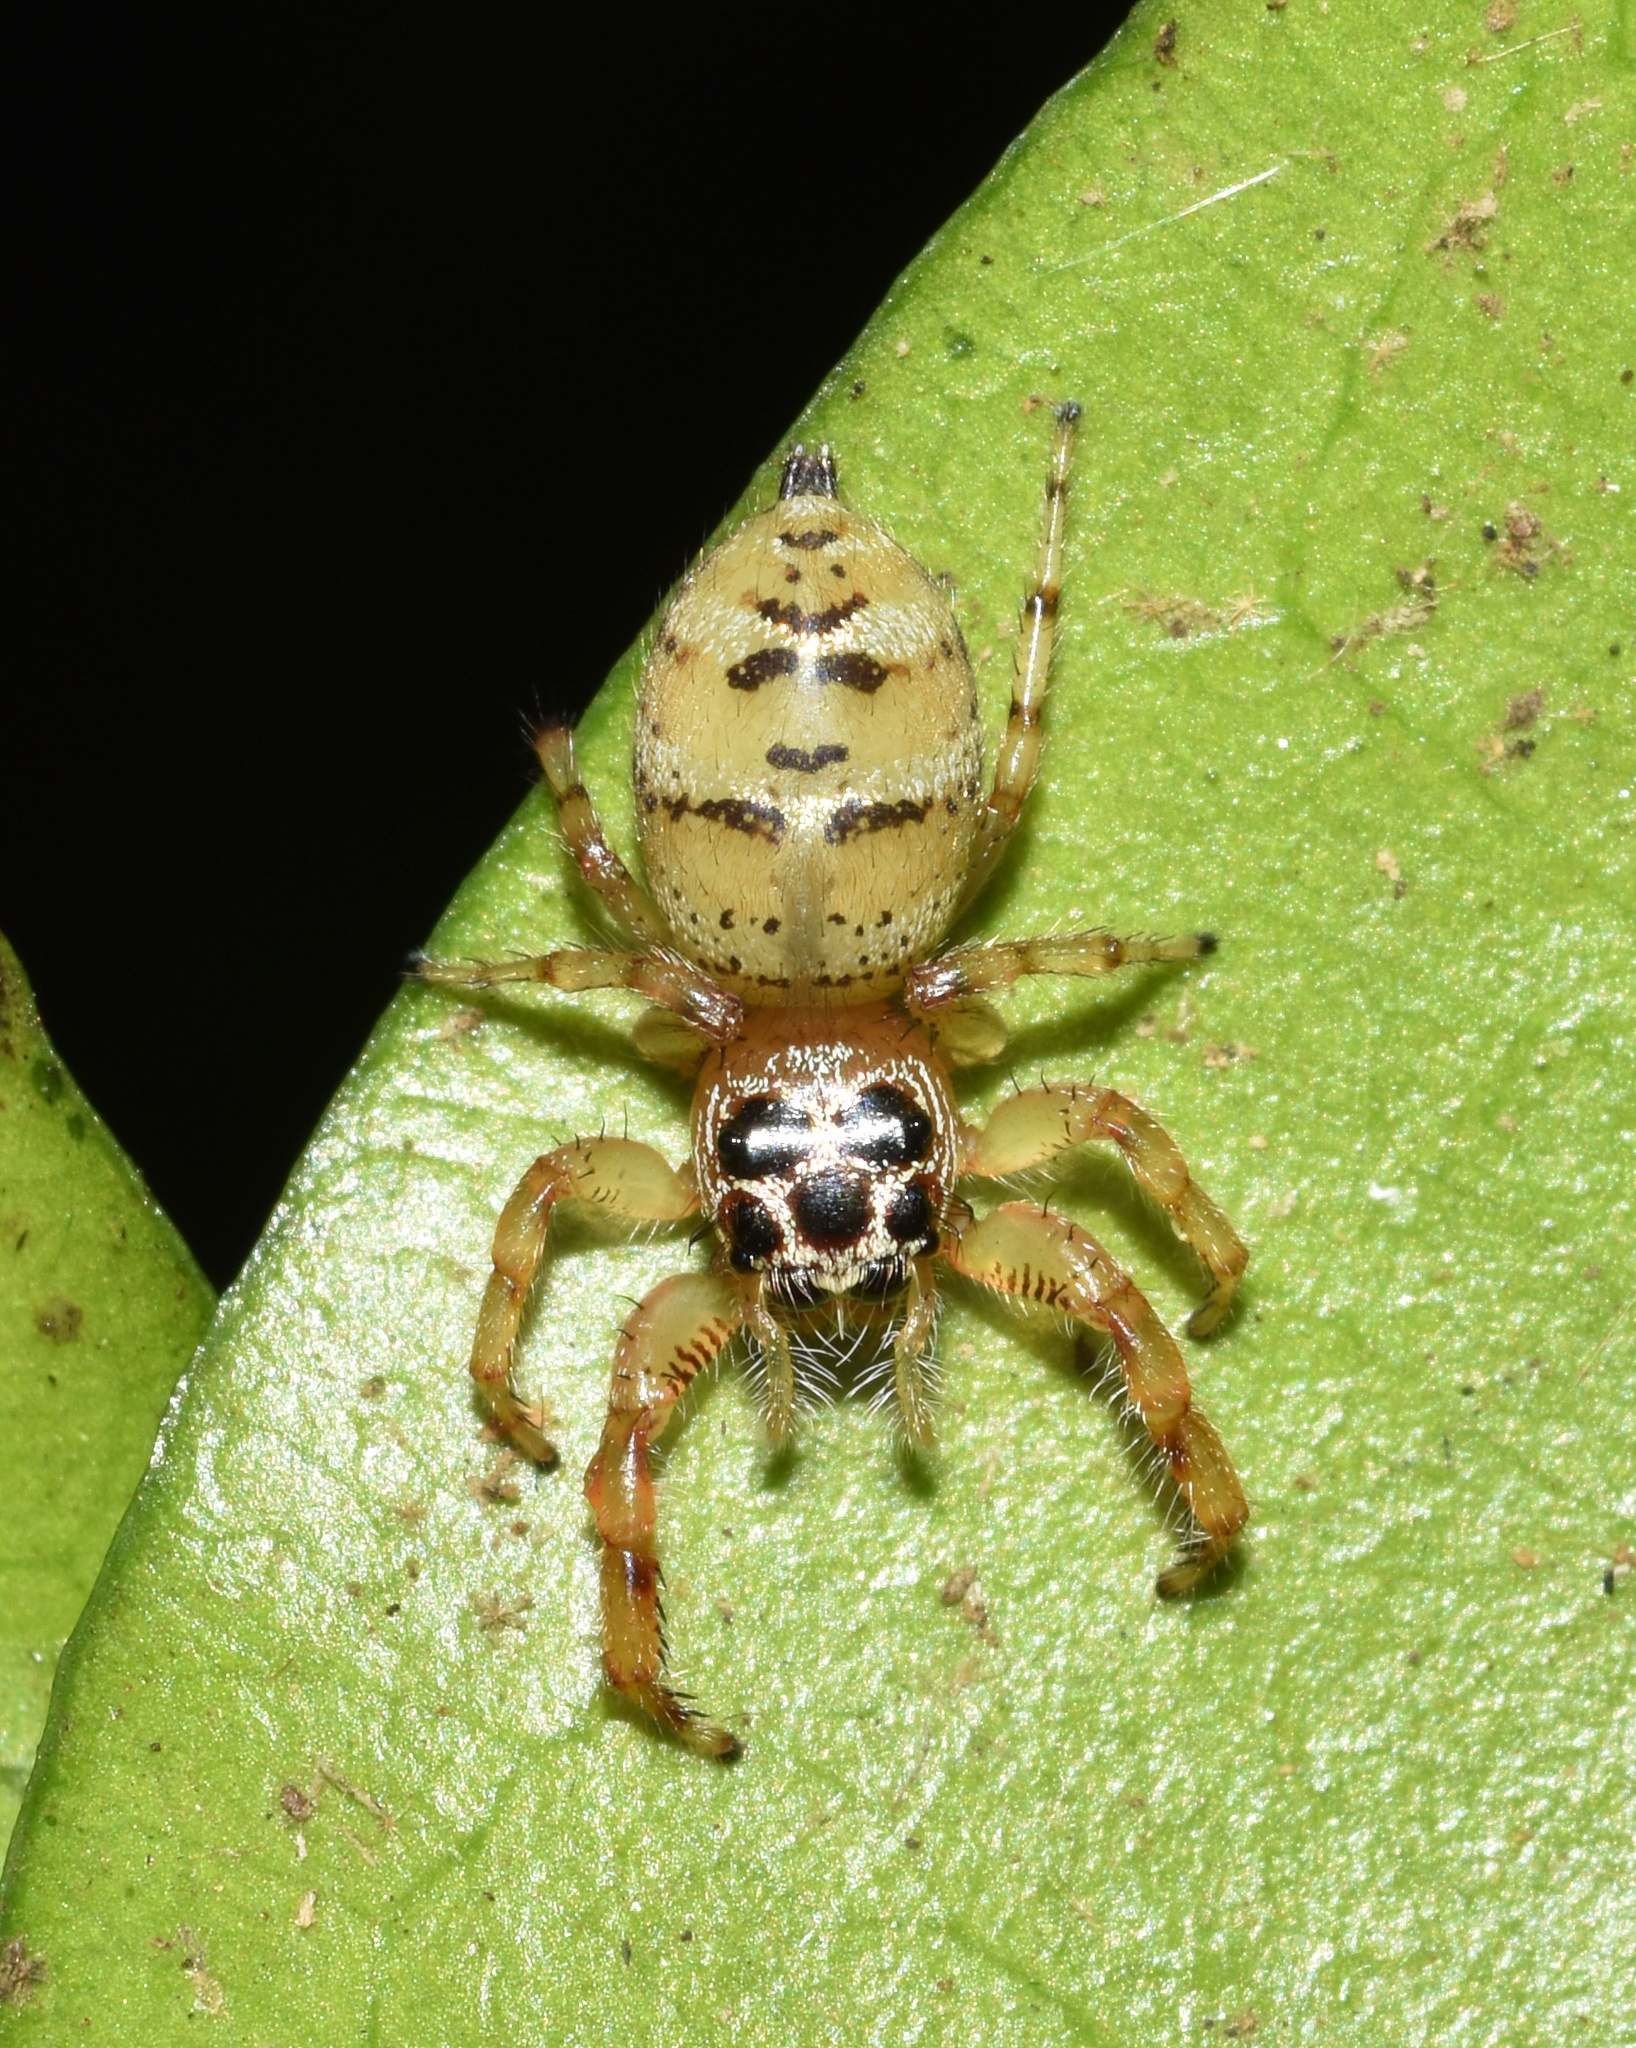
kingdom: Animalia
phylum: Arthropoda
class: Arachnida
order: Araneae
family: Salticidae
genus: Thyene
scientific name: Thyene natalii
